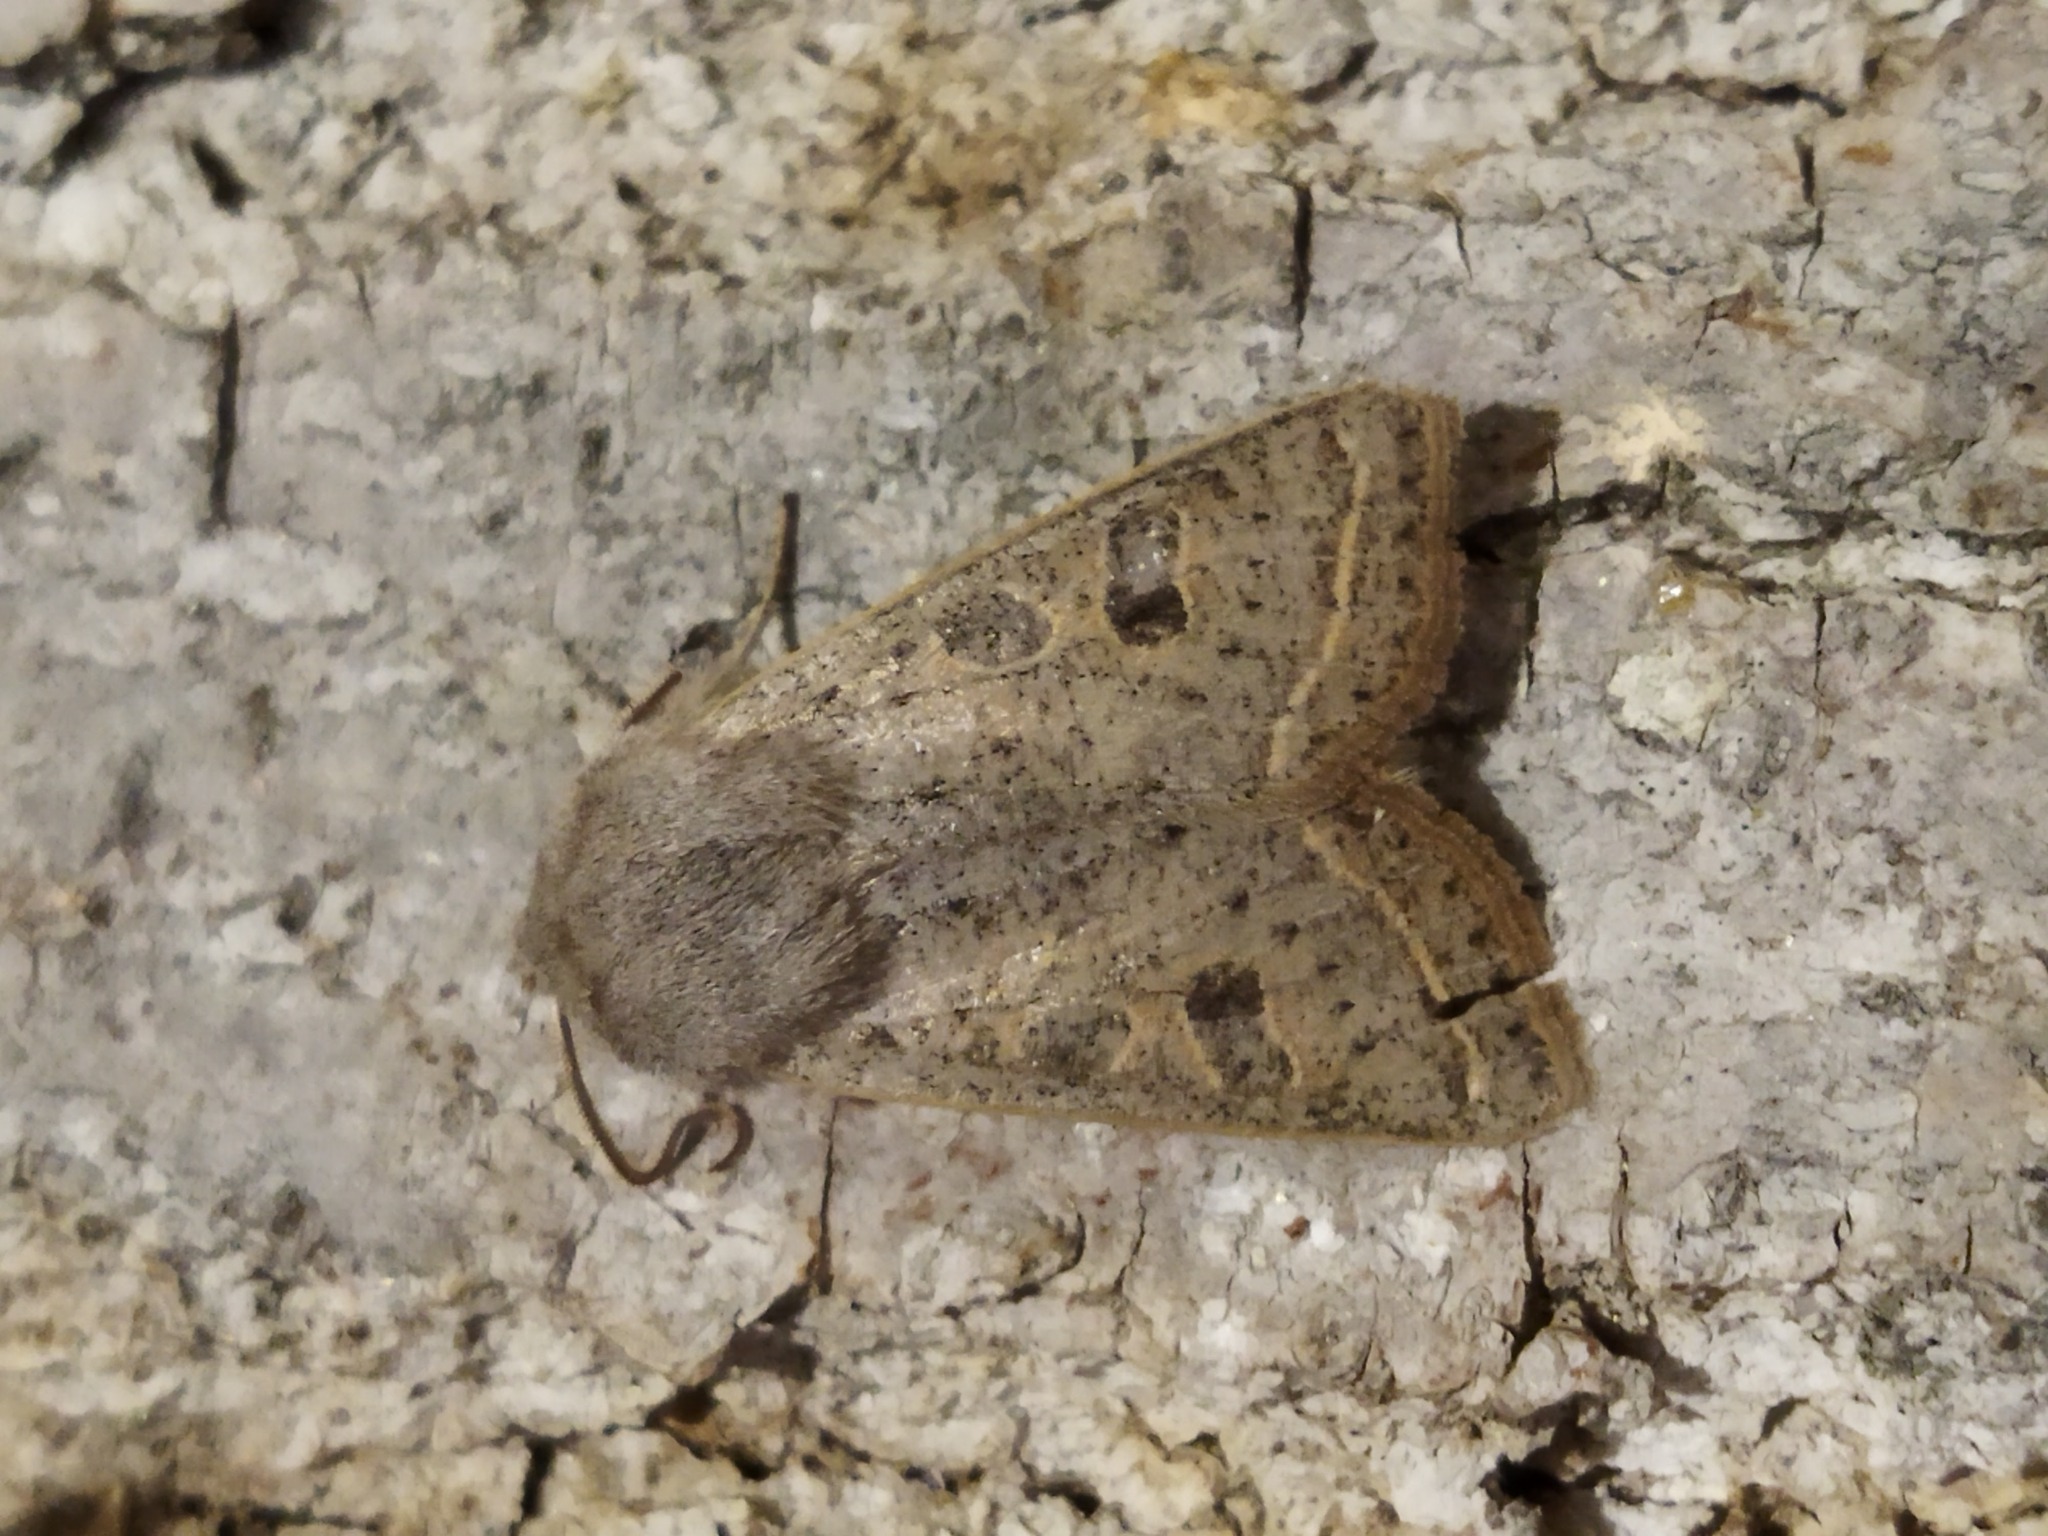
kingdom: Animalia
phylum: Arthropoda
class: Insecta
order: Lepidoptera
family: Noctuidae
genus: Orthosia
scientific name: Orthosia gracilis
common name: Powdered quaker
